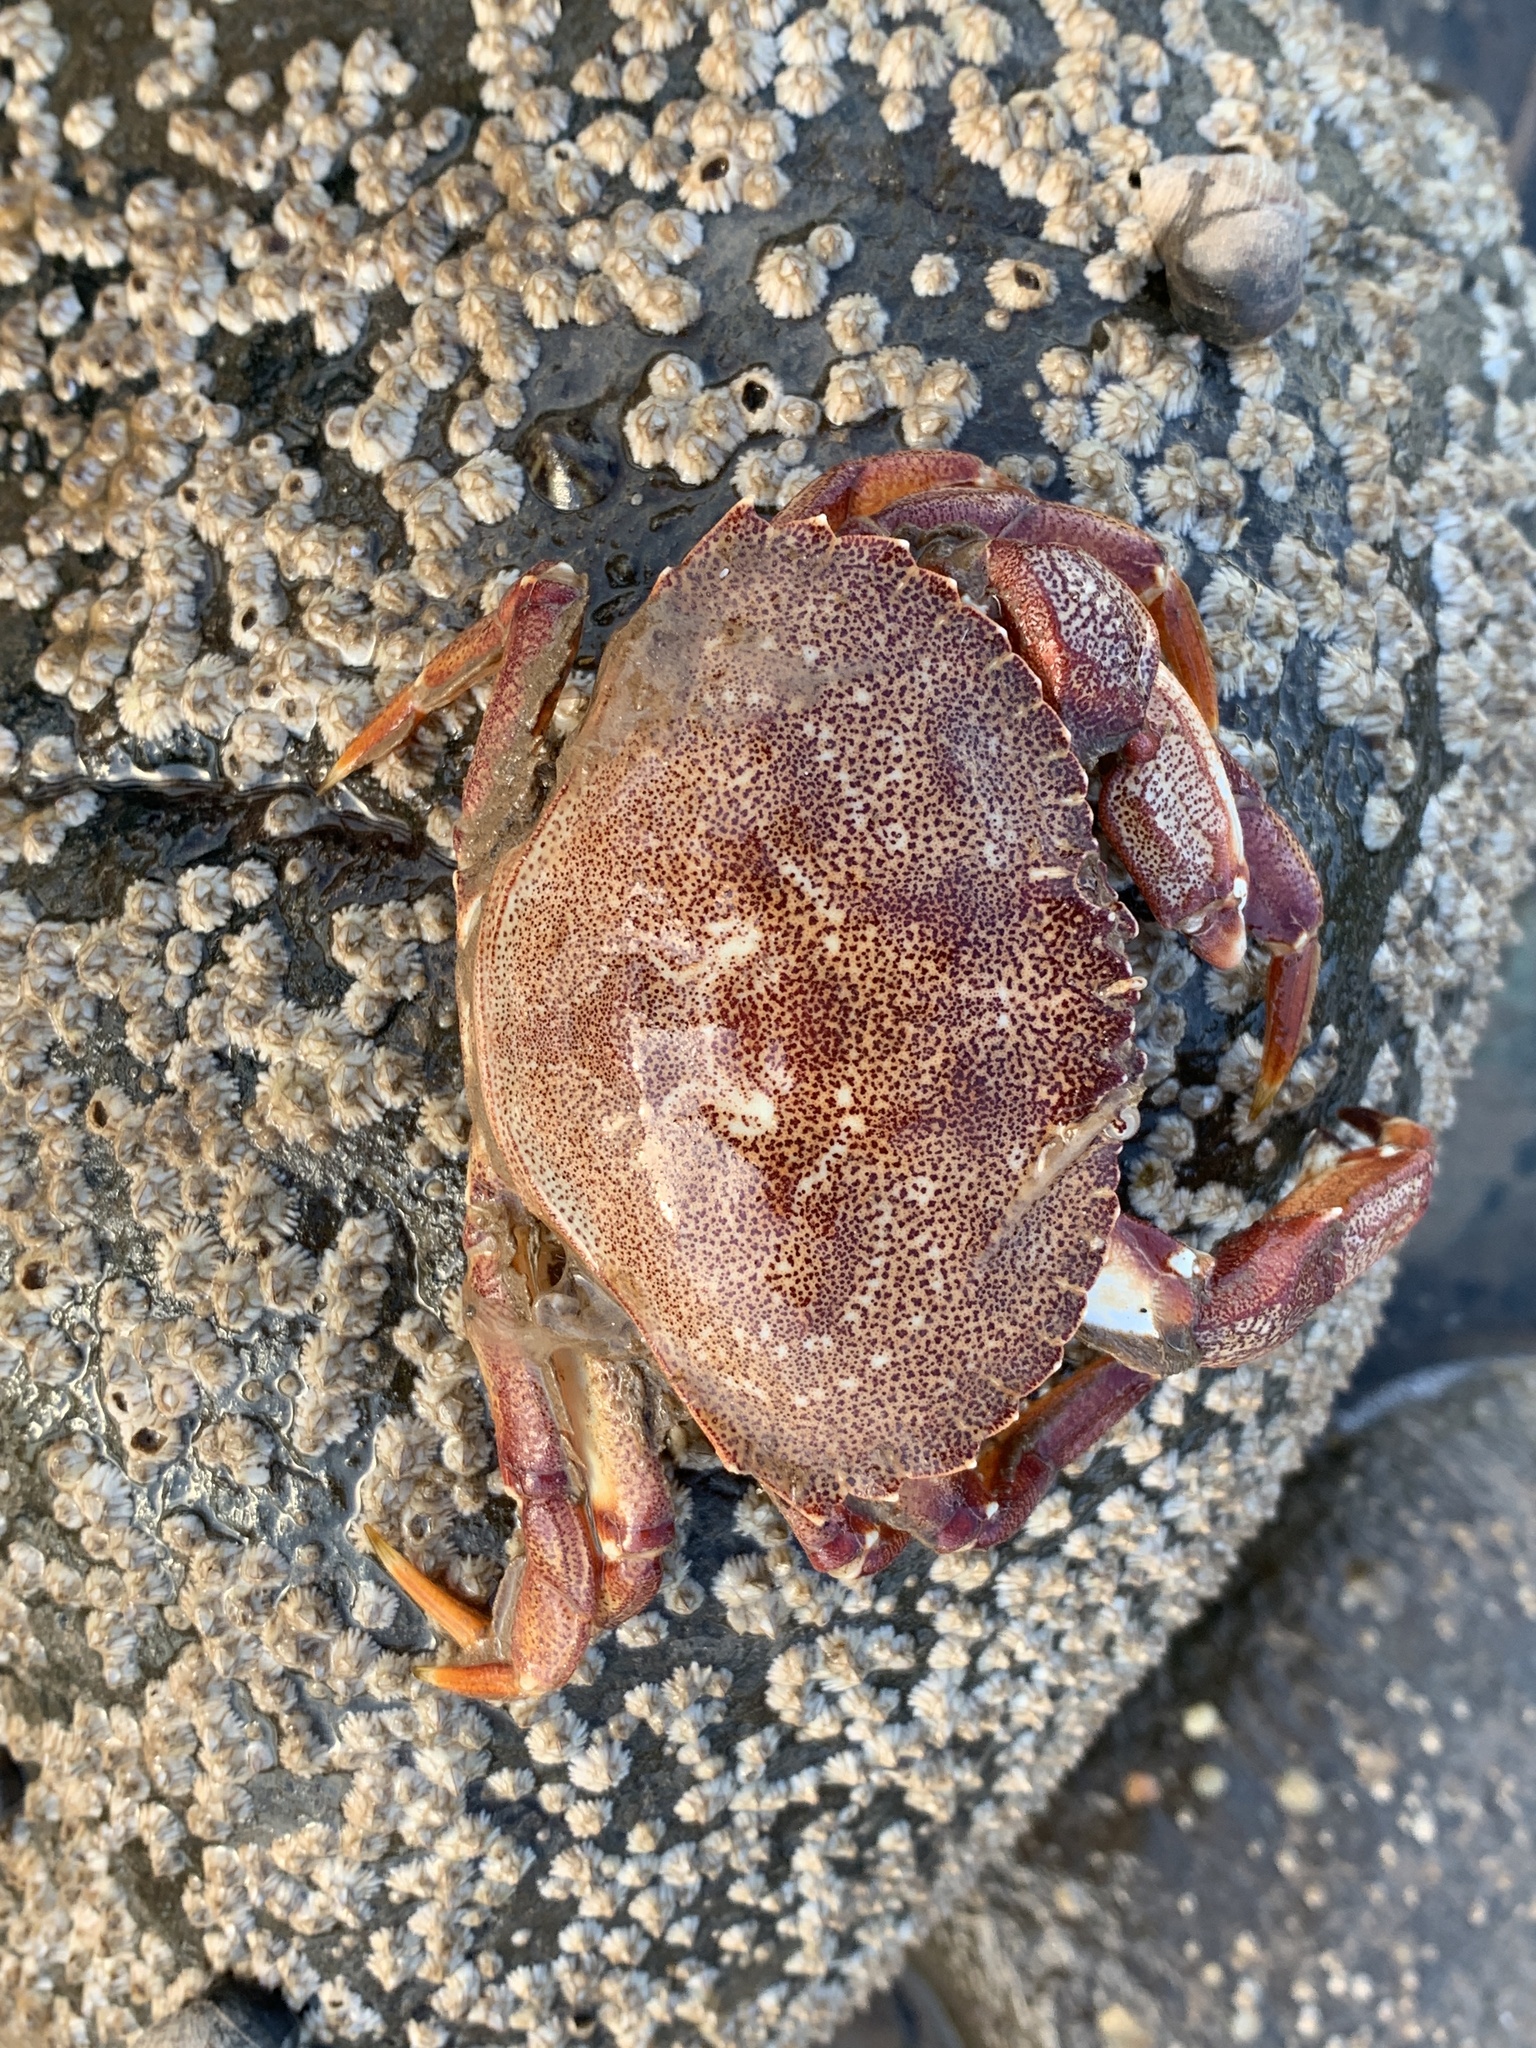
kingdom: Animalia
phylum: Arthropoda
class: Malacostraca
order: Decapoda
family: Cancridae
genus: Cancer
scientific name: Cancer irroratus
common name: Atlantic rock crab
